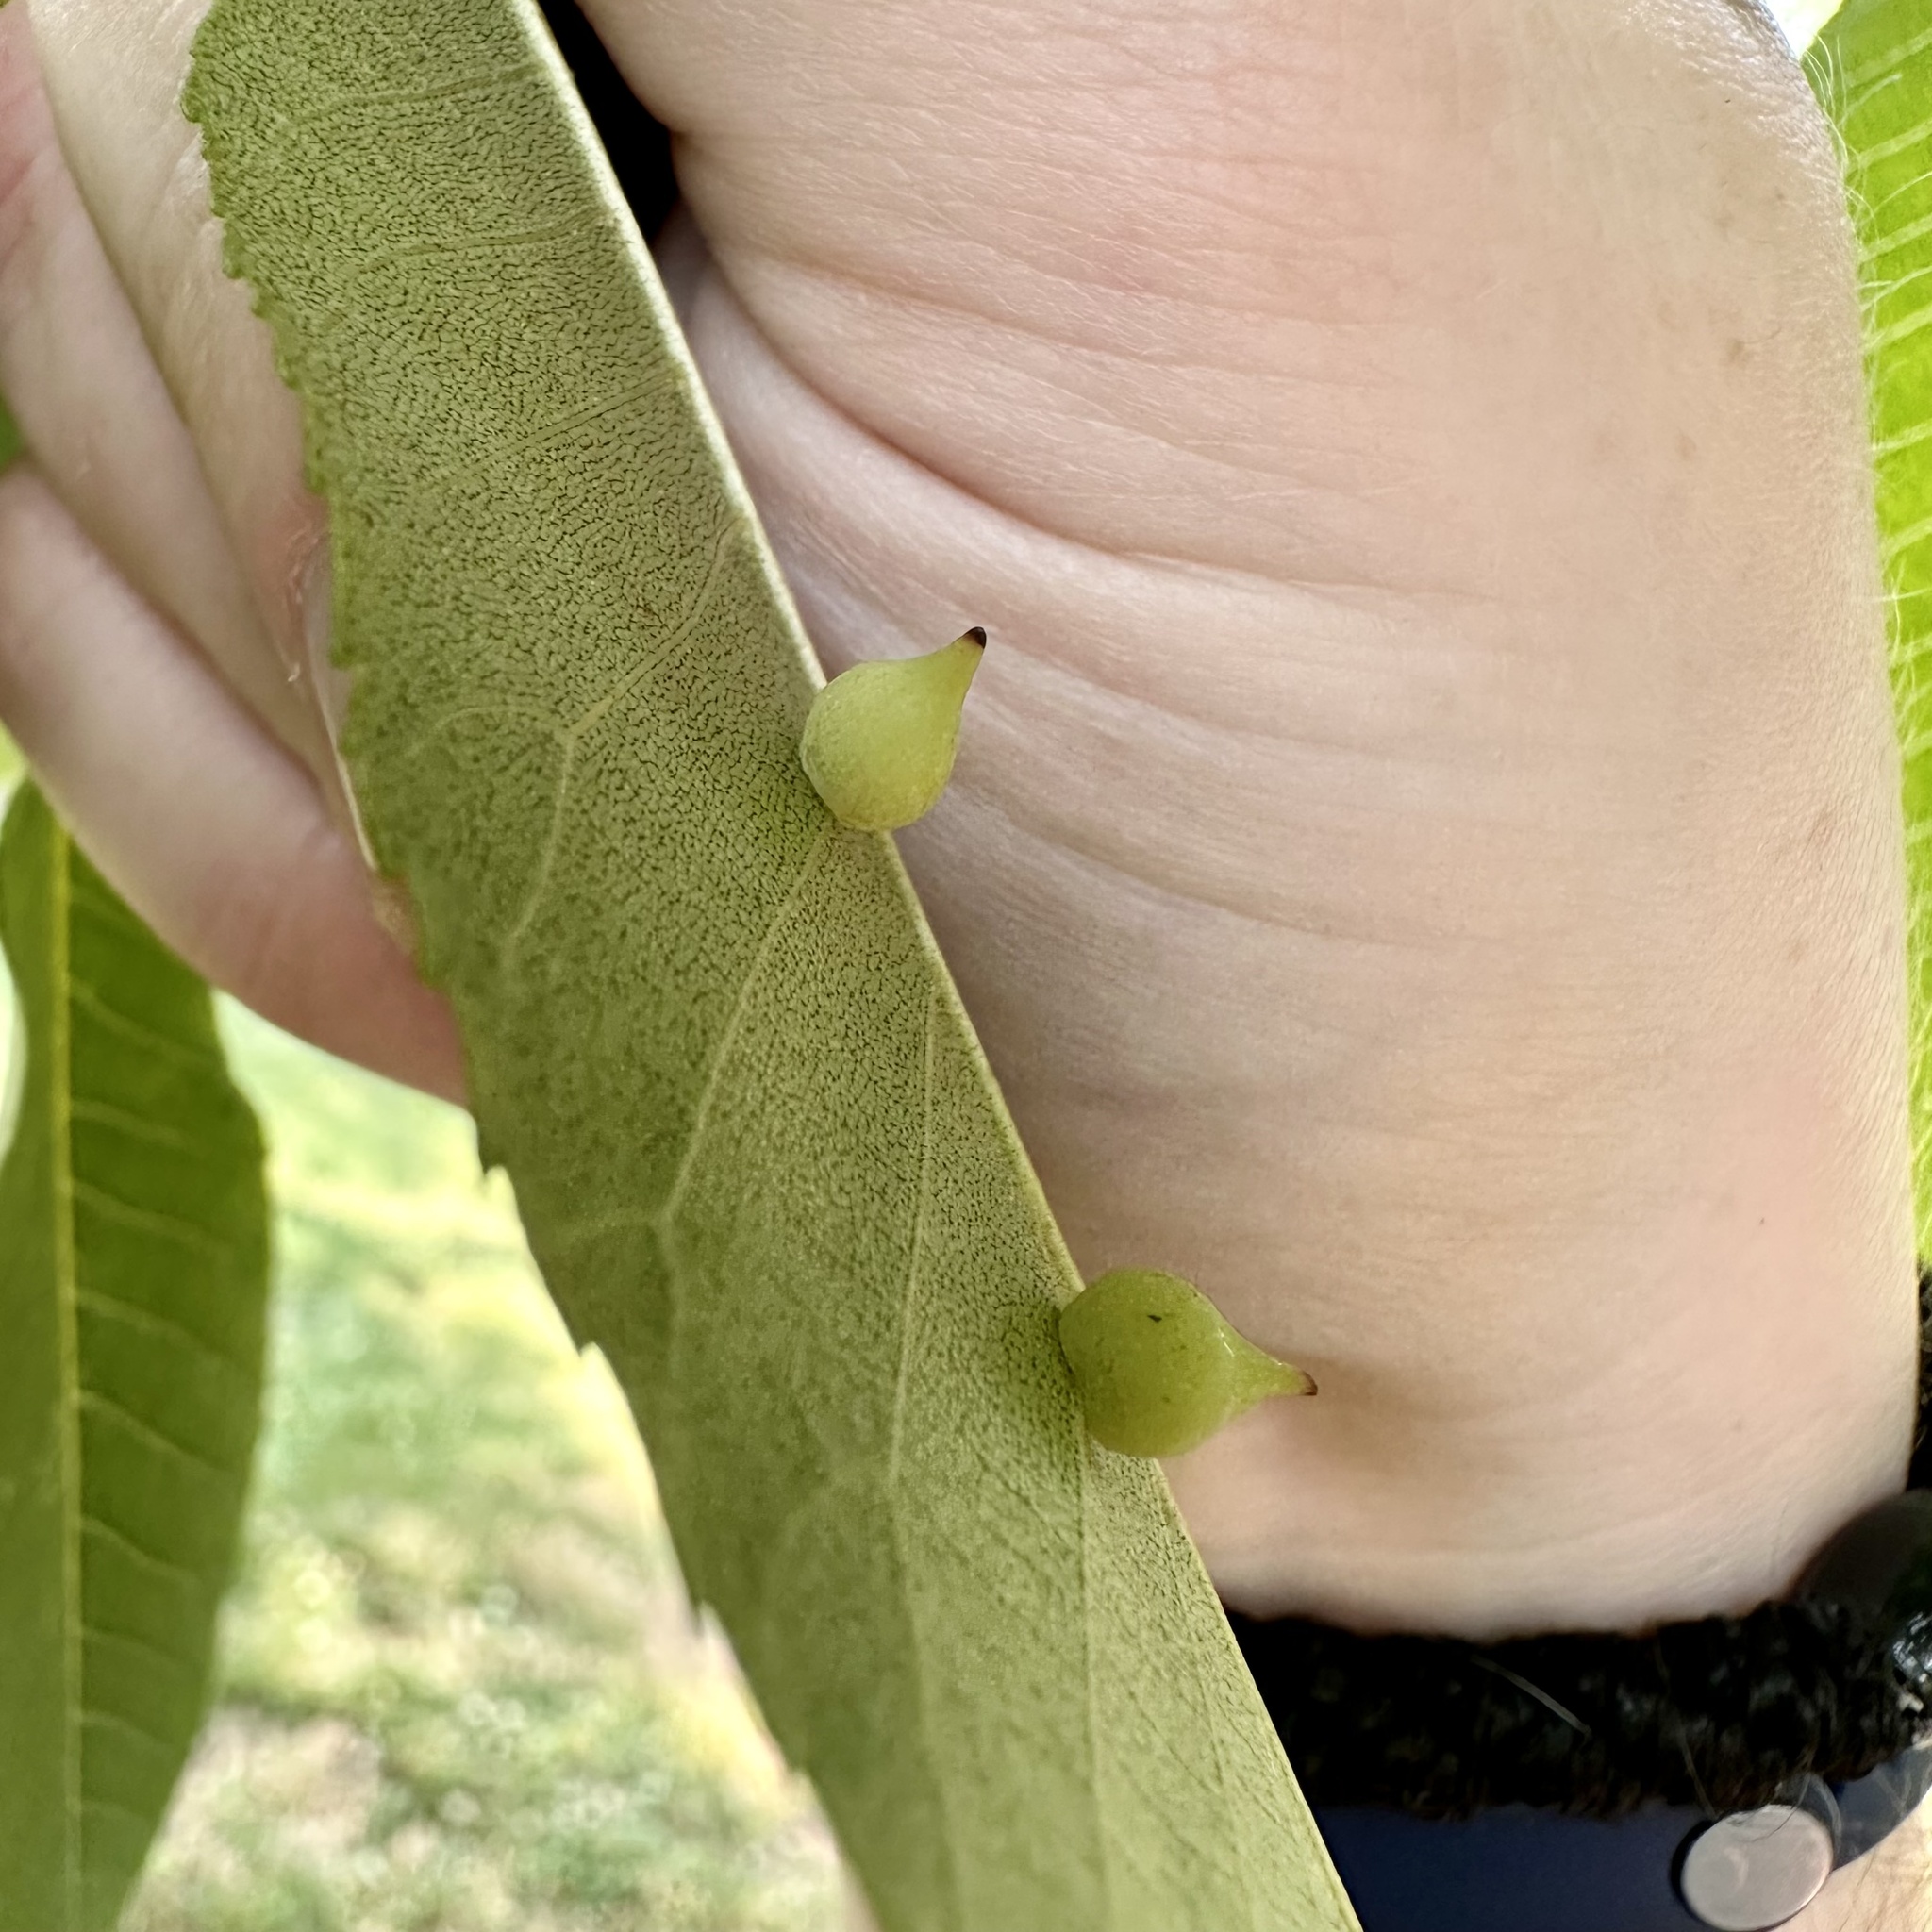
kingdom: Animalia
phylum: Arthropoda
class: Insecta
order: Diptera
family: Cecidomyiidae
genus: Caryomyia
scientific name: Caryomyia caryaecola
